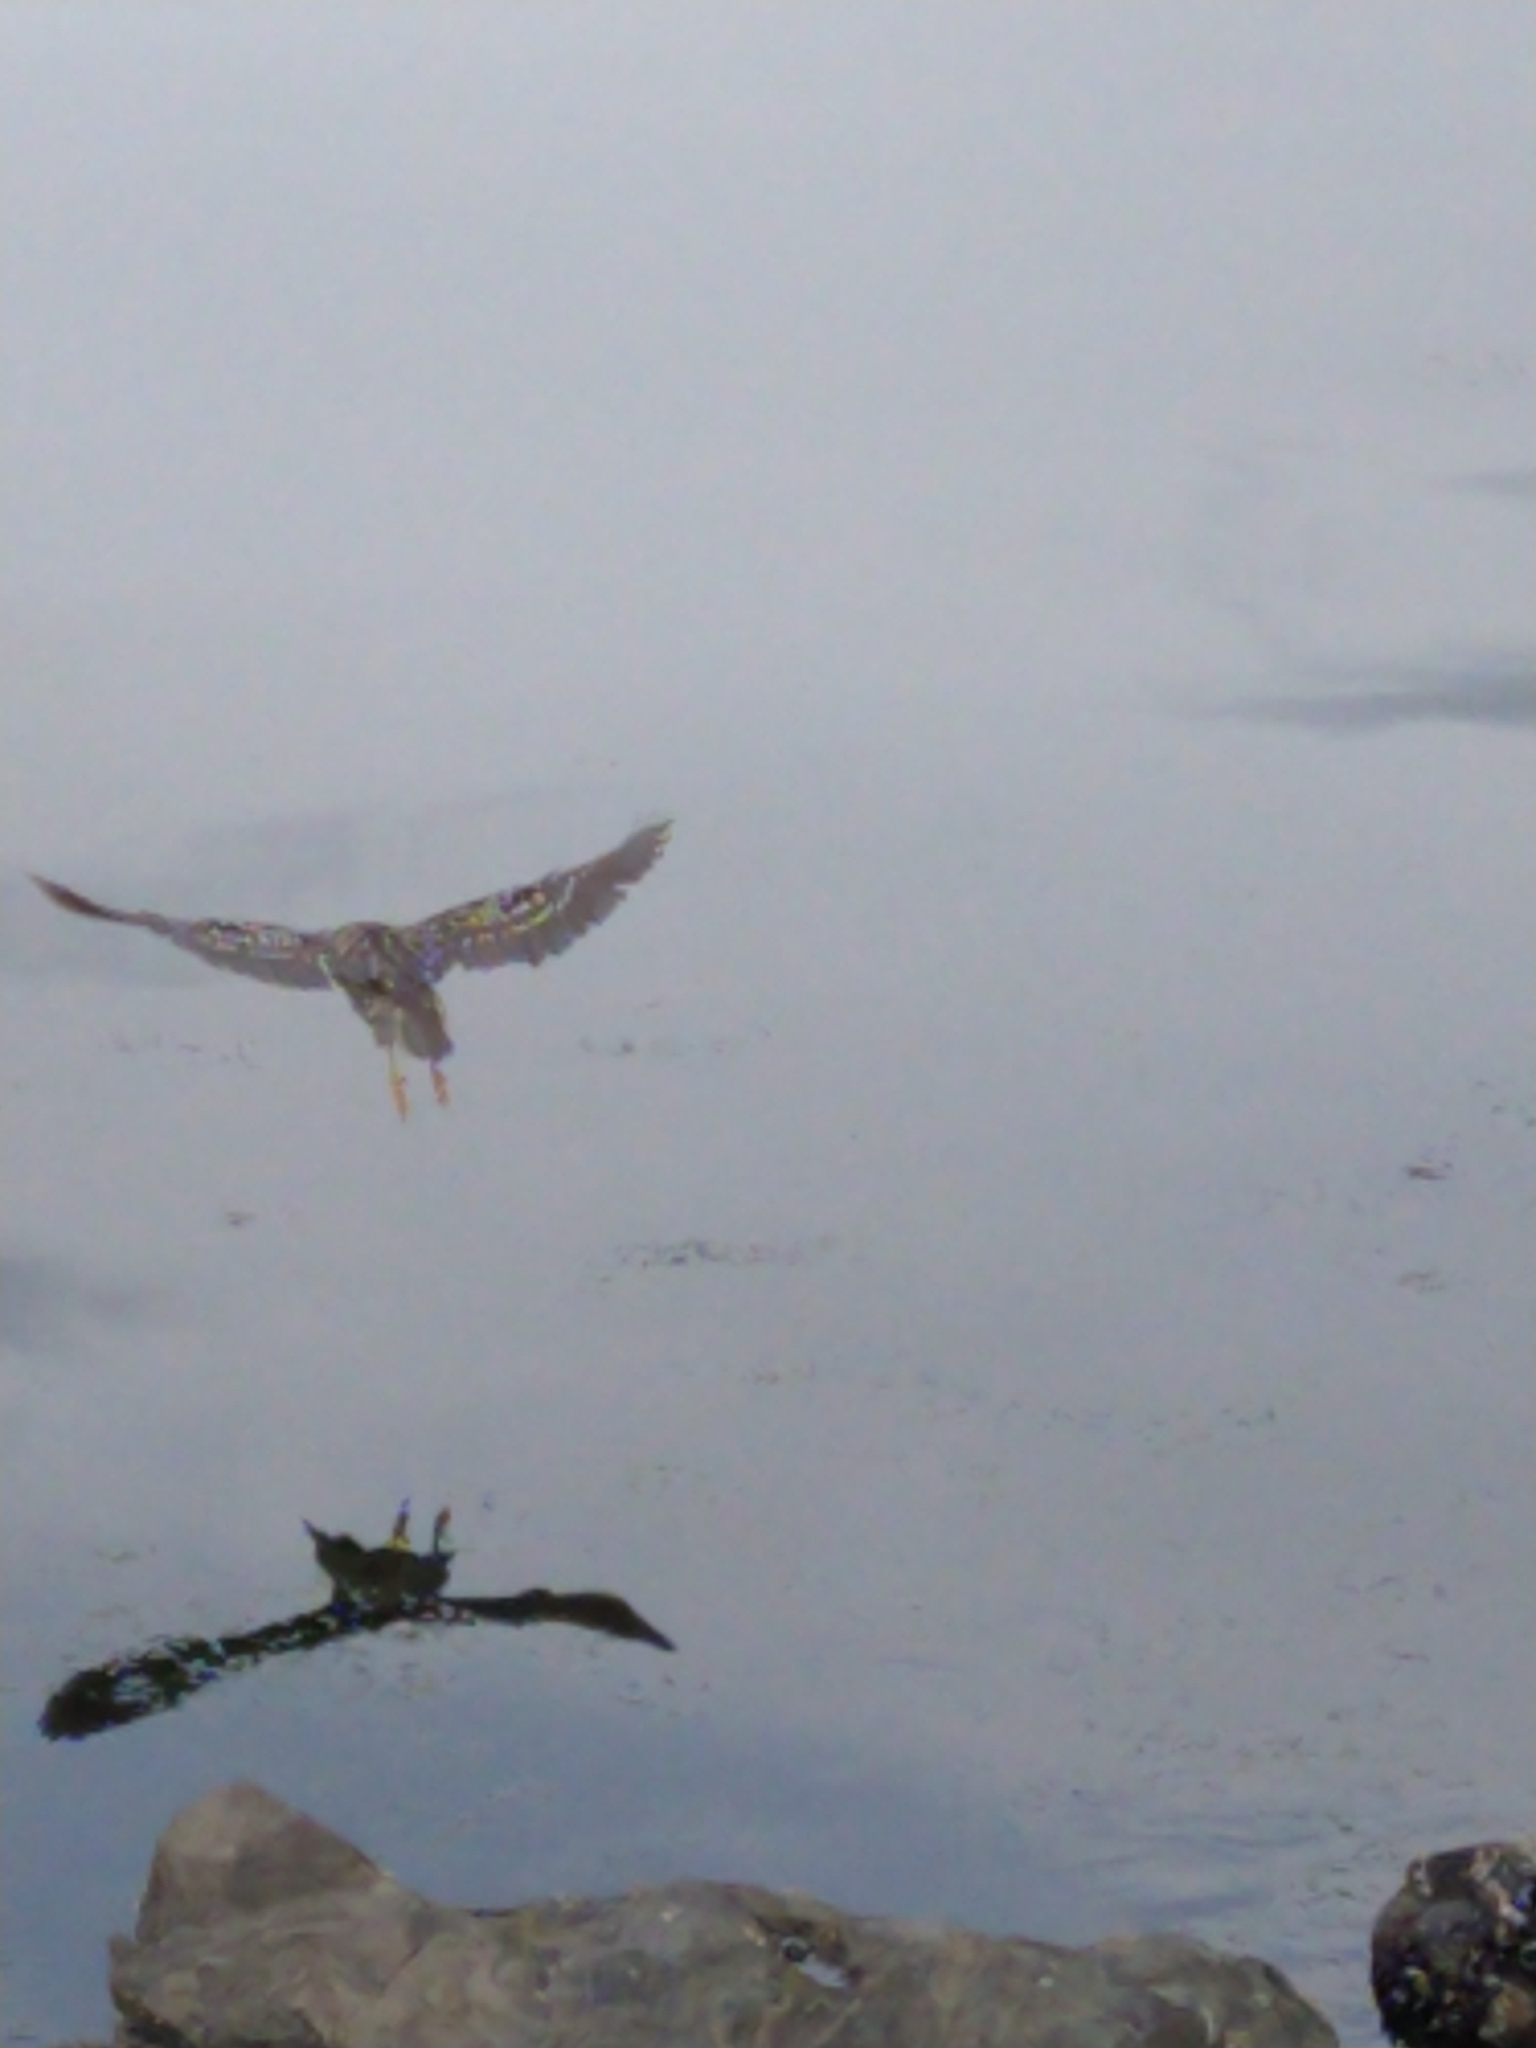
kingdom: Animalia
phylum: Chordata
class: Aves
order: Pelecaniformes
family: Ardeidae
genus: Nycticorax
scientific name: Nycticorax nycticorax
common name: Black-crowned night heron
